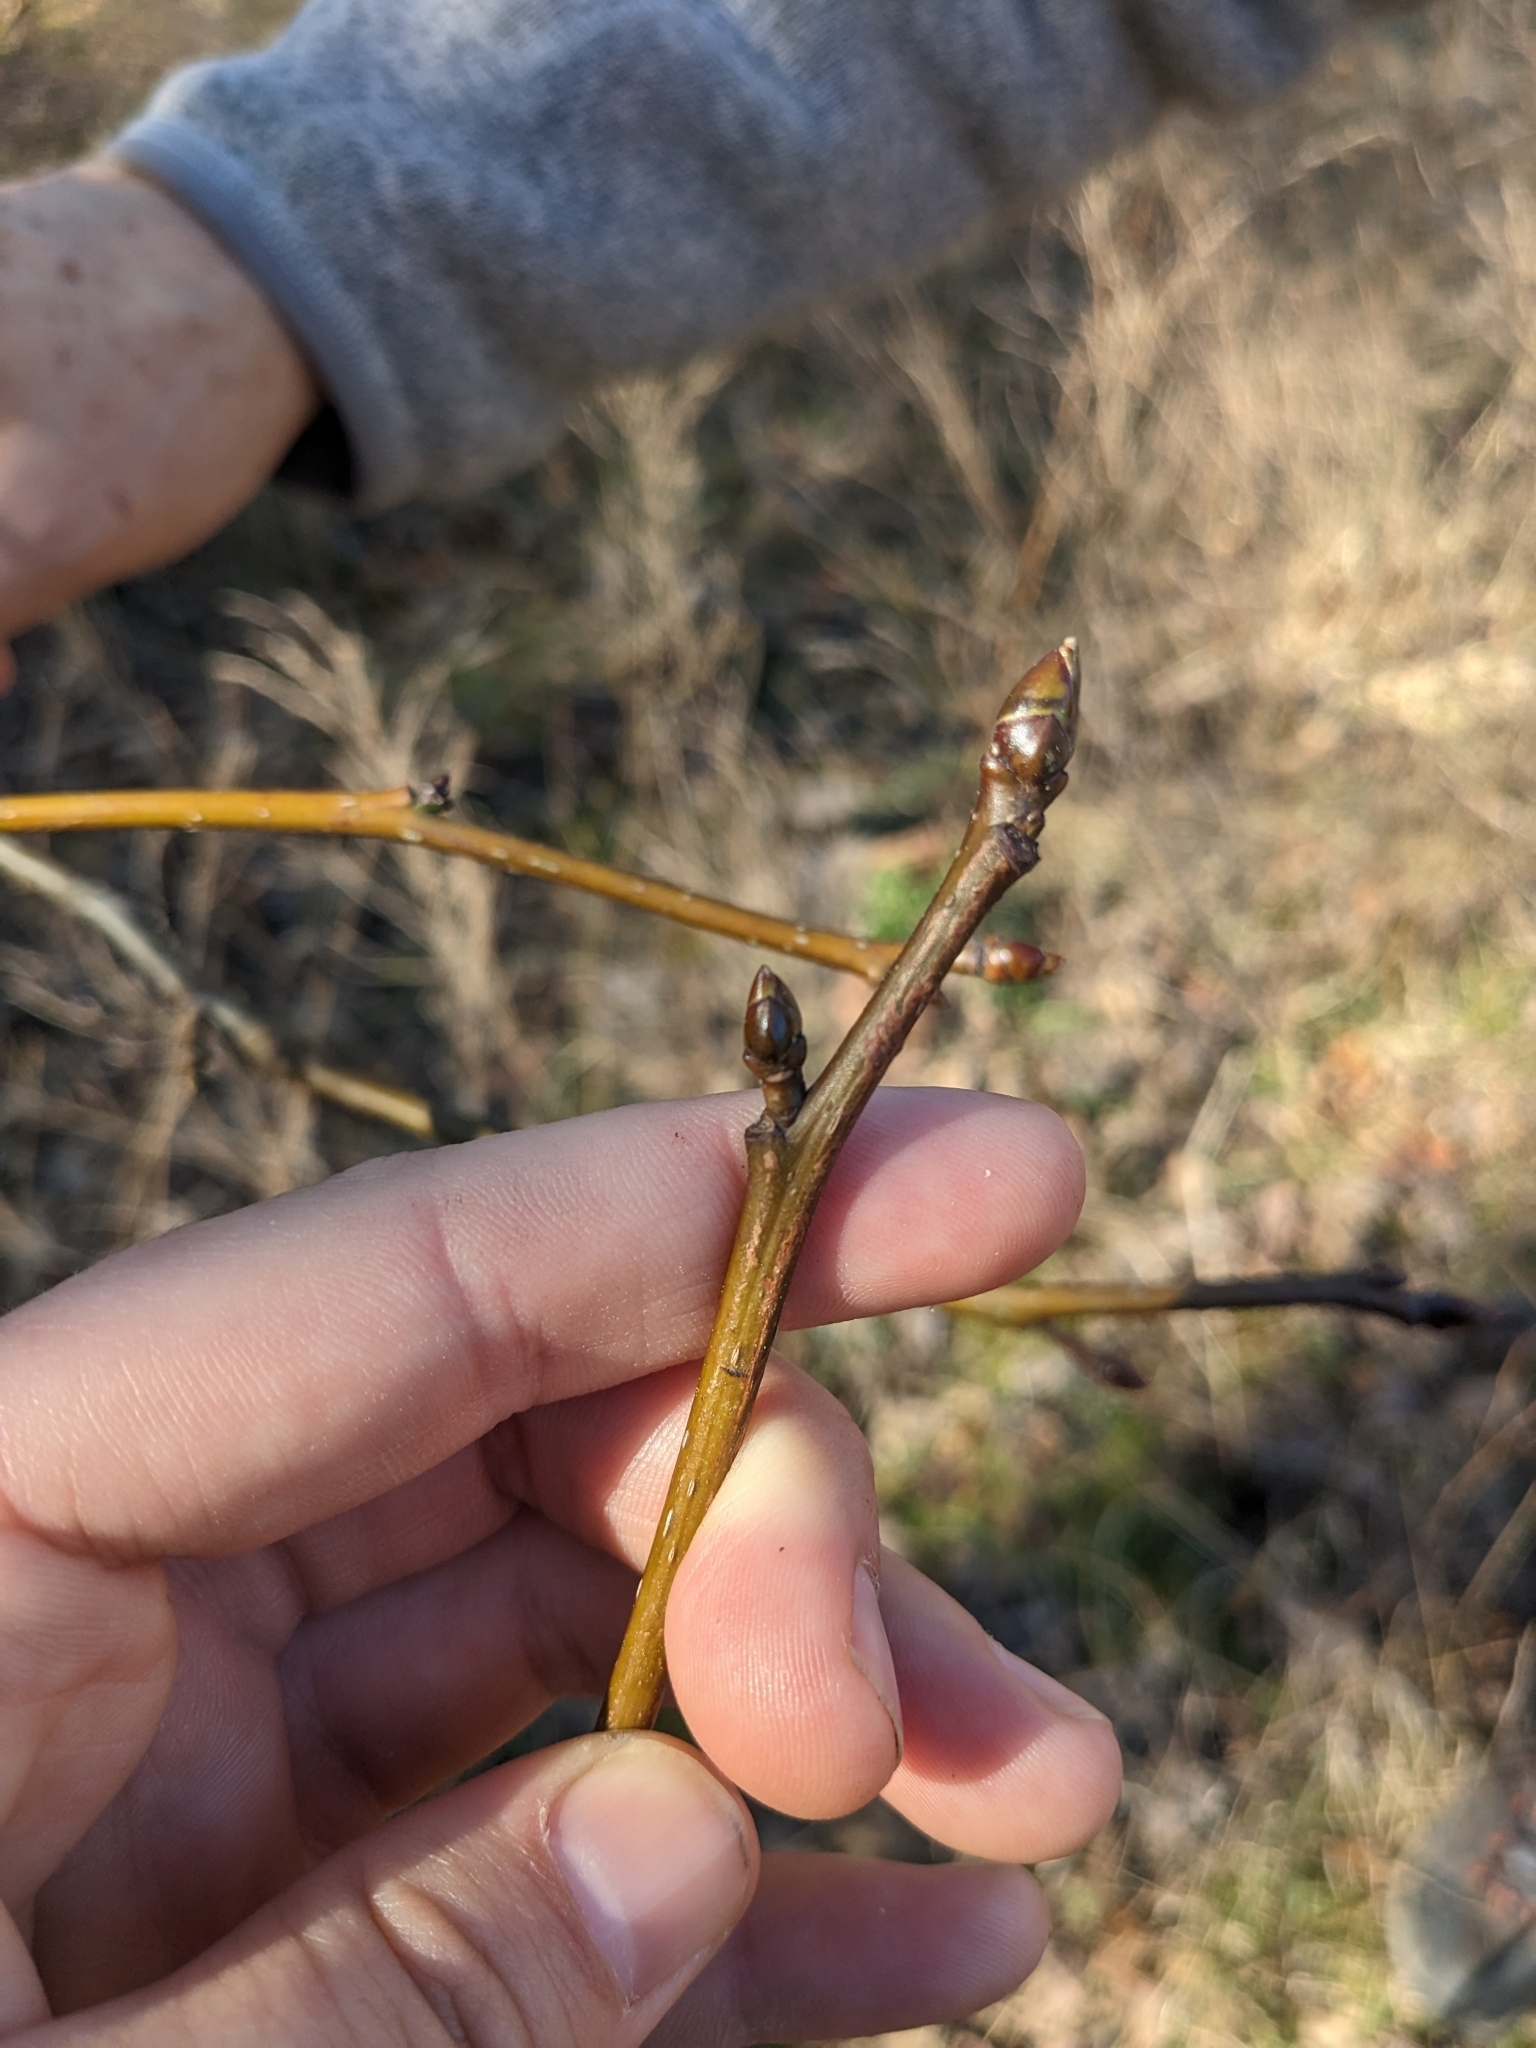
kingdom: Plantae
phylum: Tracheophyta
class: Magnoliopsida
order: Rosales
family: Cannabaceae
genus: Celtis
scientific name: Celtis occidentalis
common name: Common hackberry
